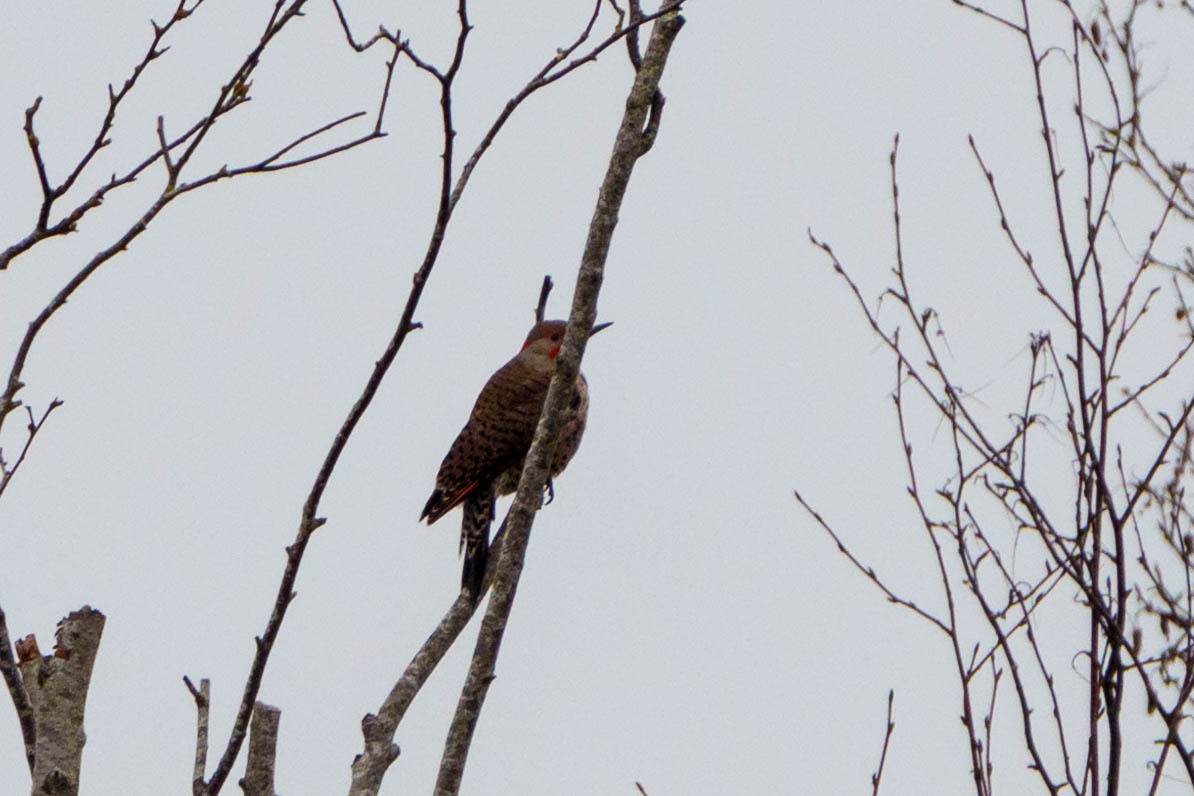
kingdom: Animalia
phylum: Chordata
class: Aves
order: Piciformes
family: Picidae
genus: Colaptes
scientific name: Colaptes
